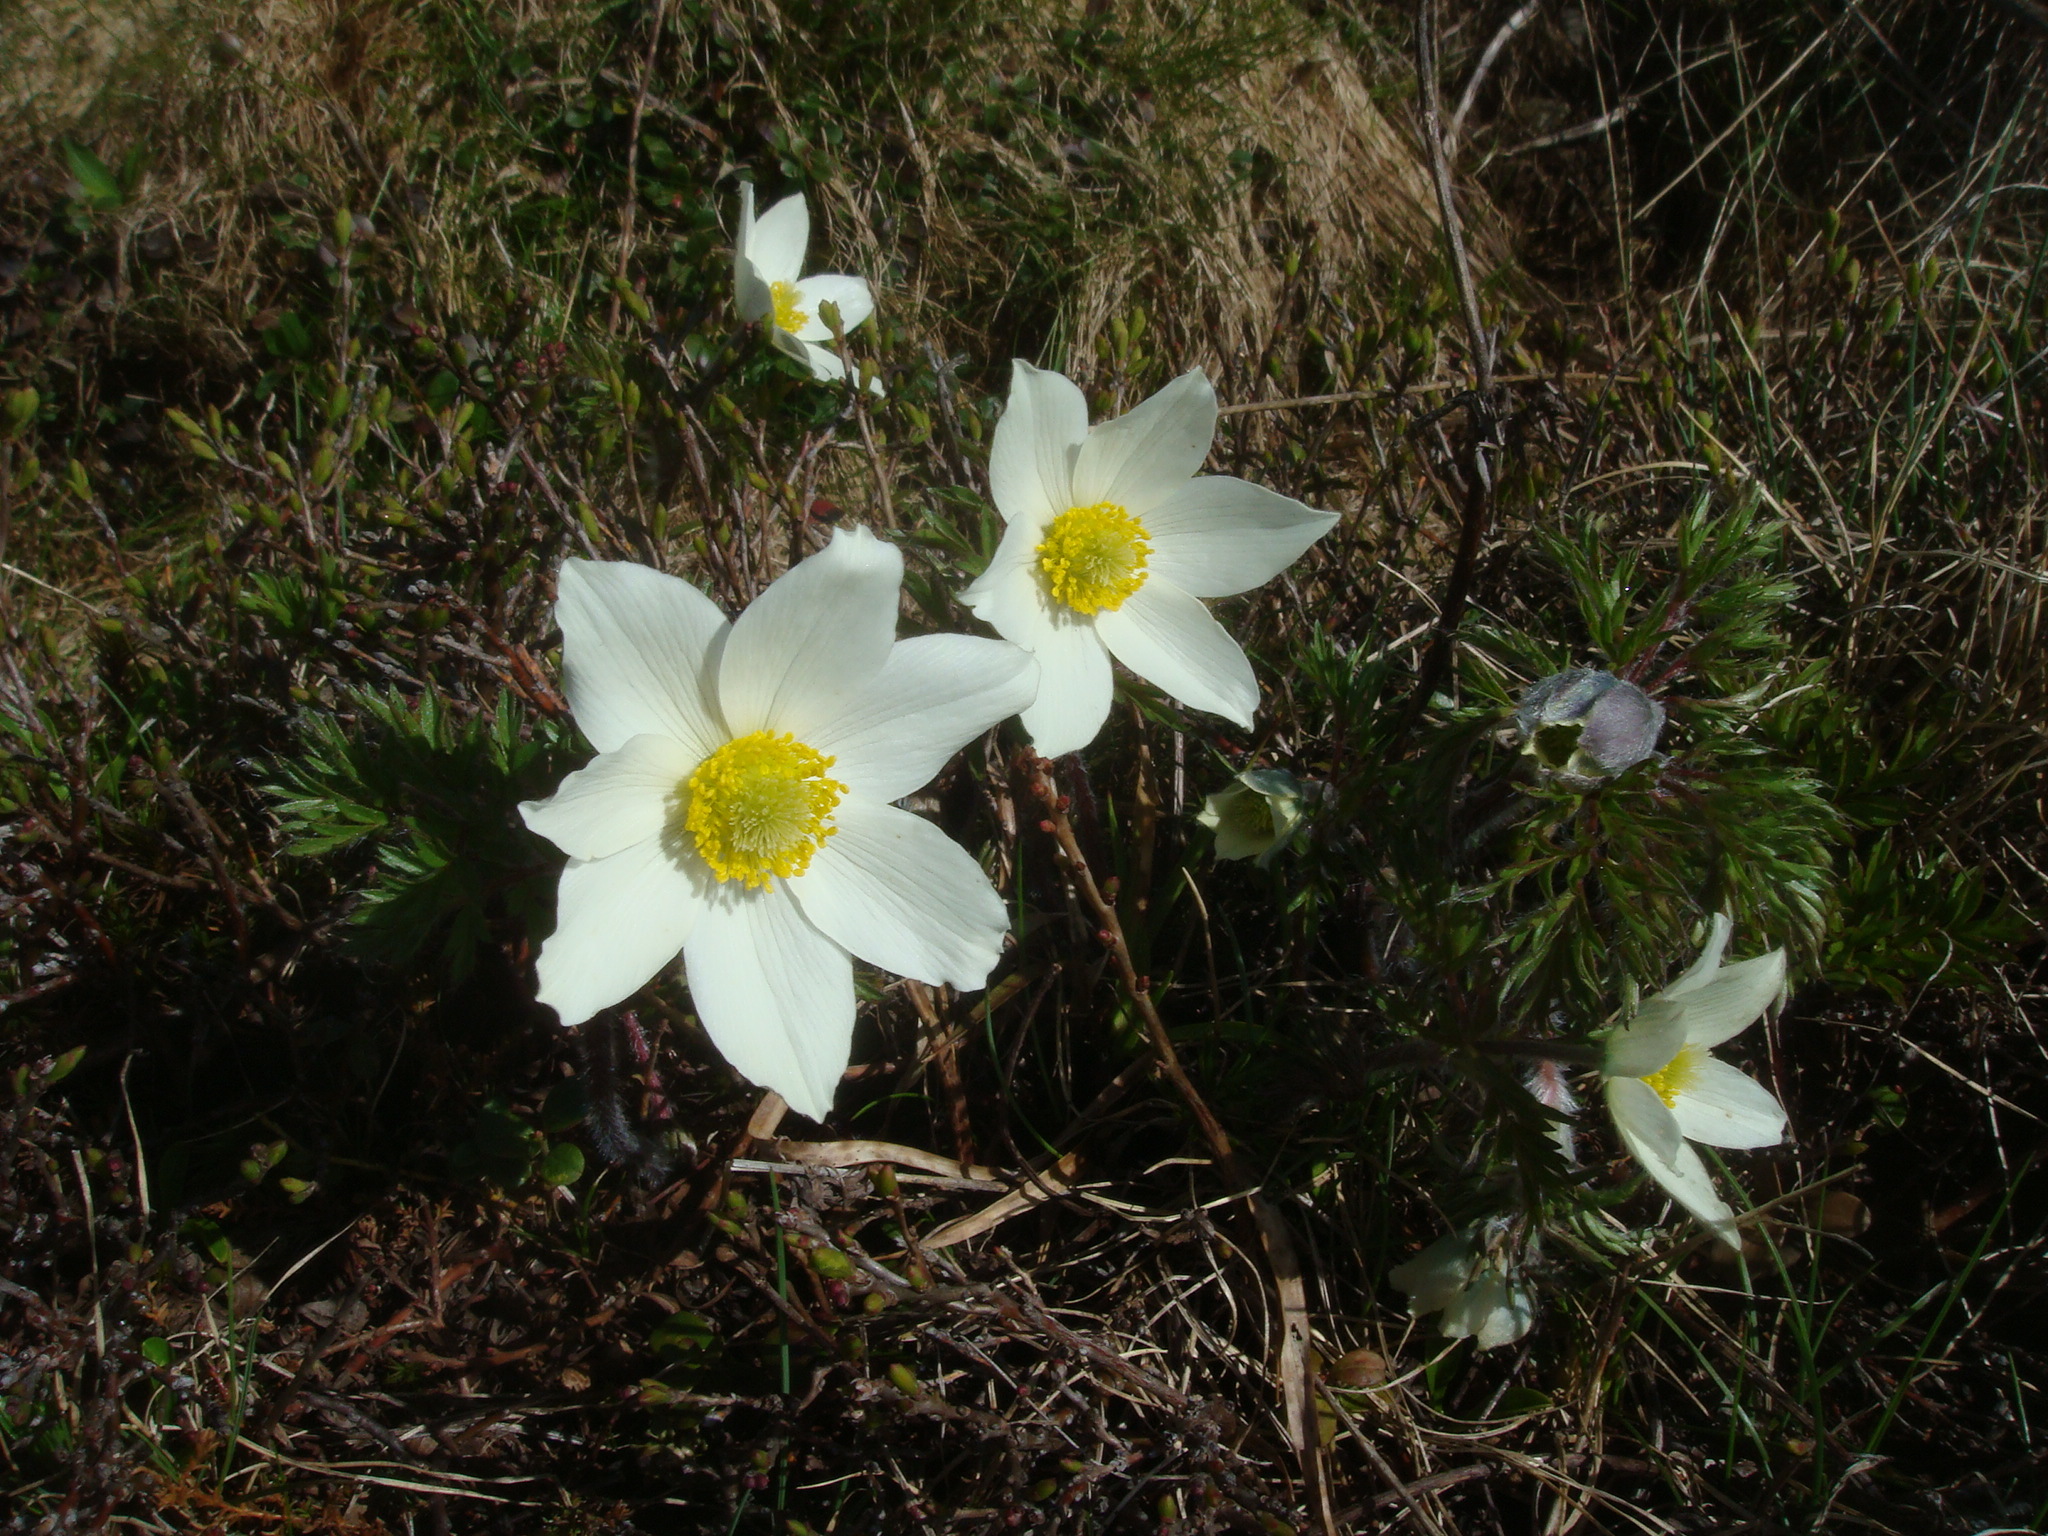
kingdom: Plantae
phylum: Tracheophyta
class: Magnoliopsida
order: Ranunculales
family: Ranunculaceae
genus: Pulsatilla
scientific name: Pulsatilla alpina
